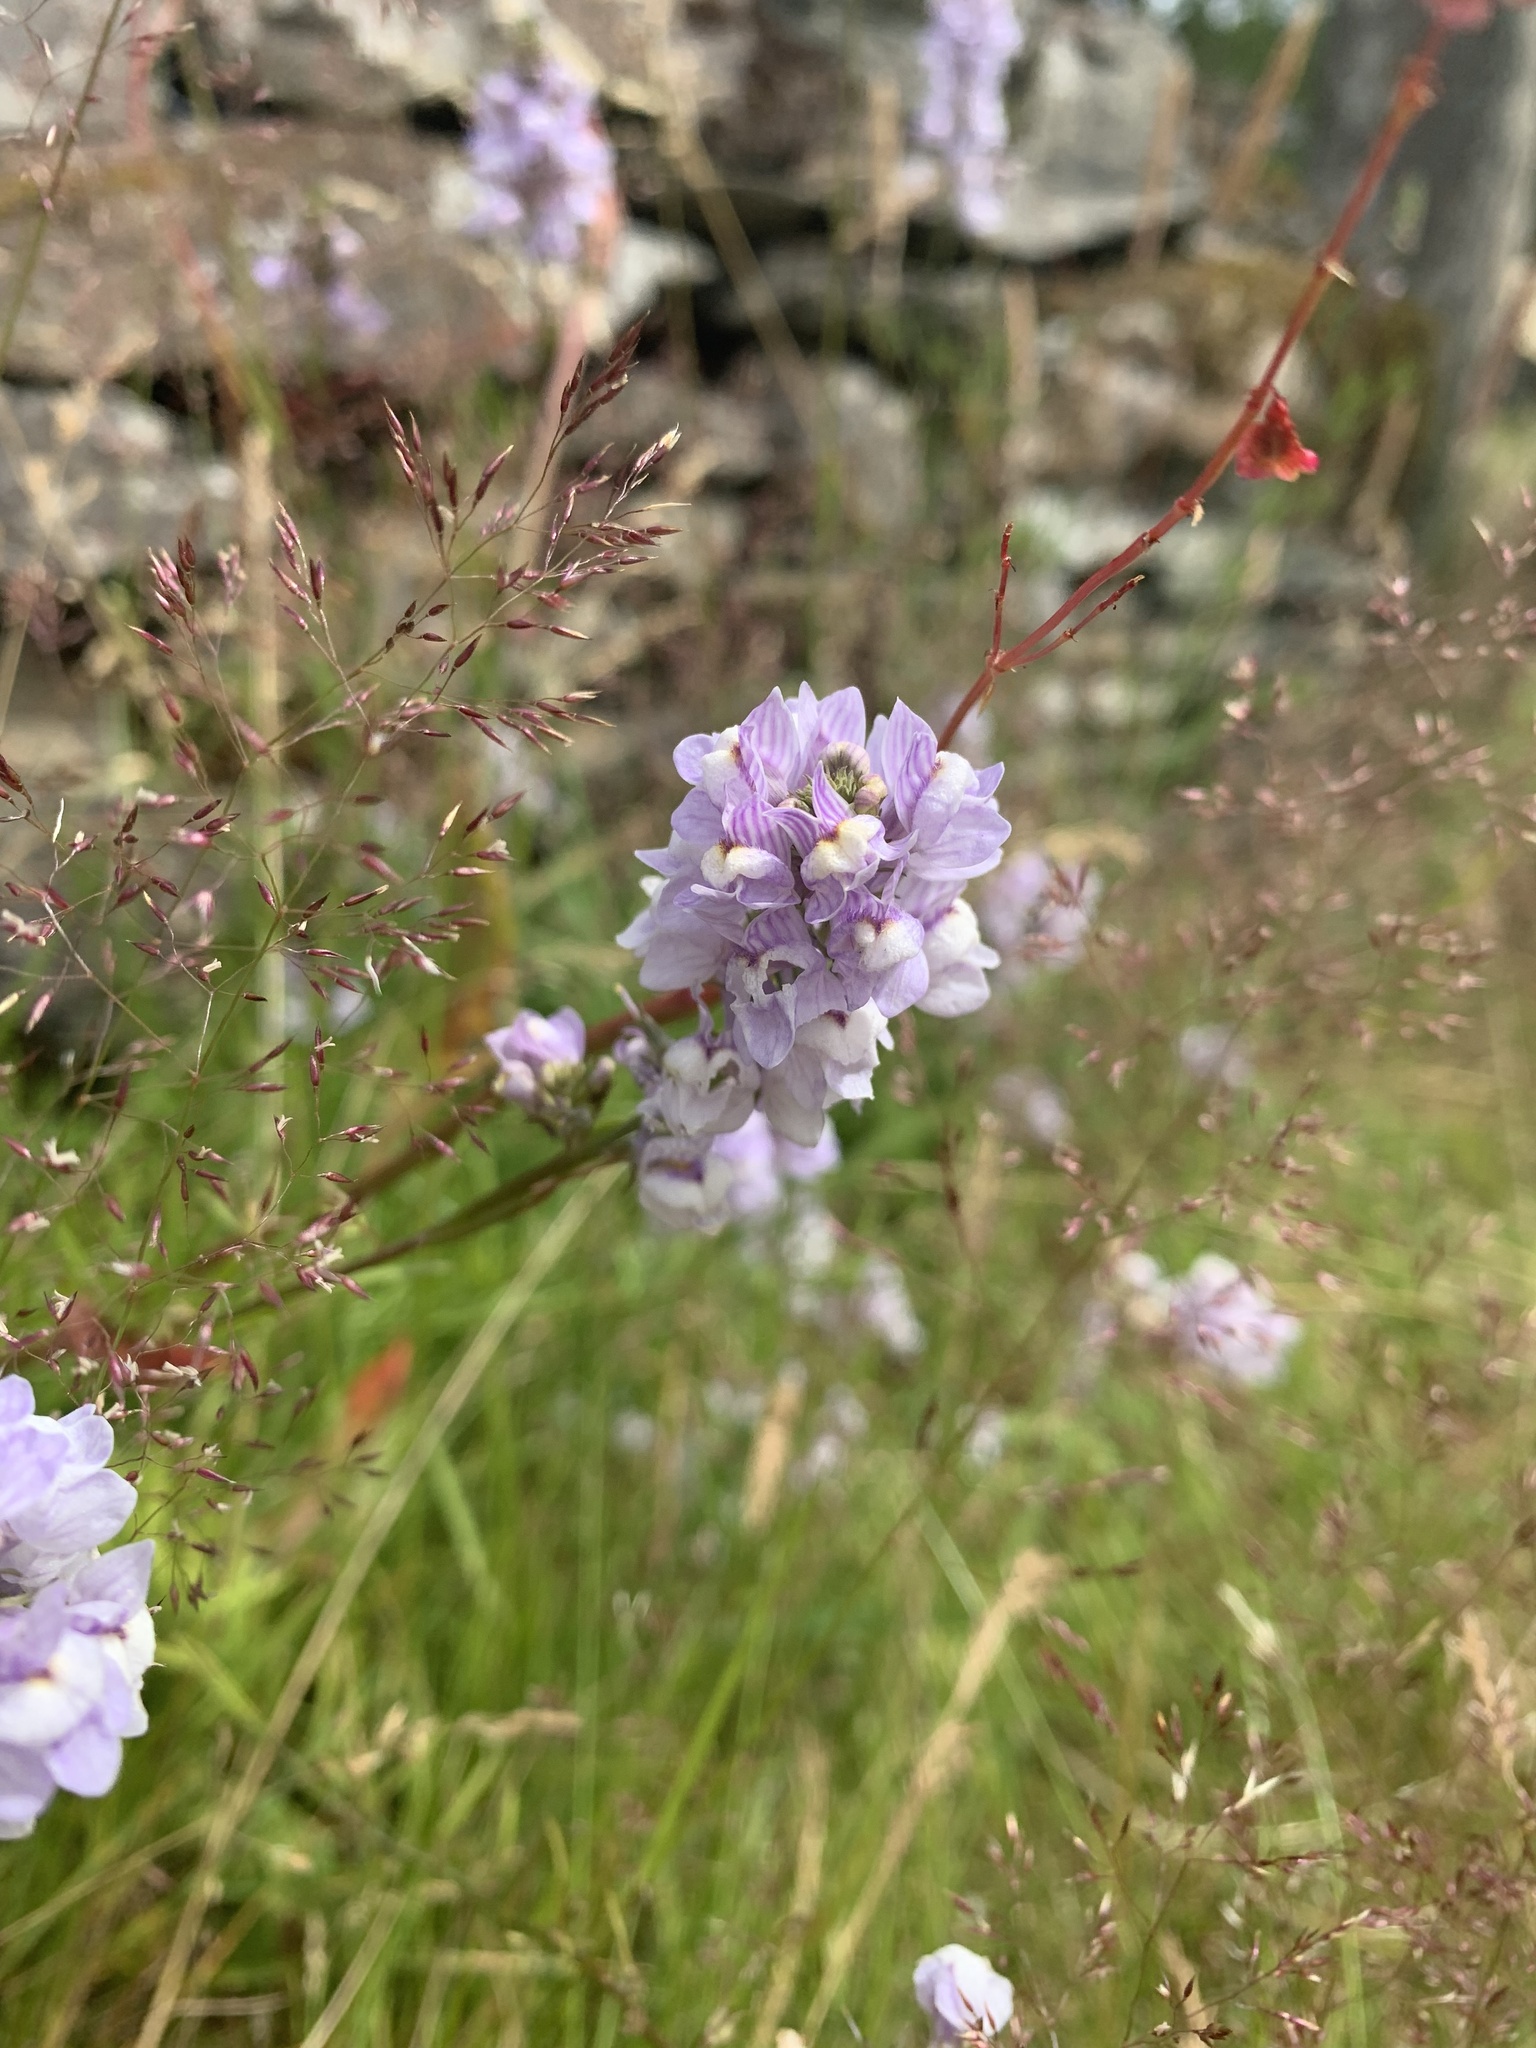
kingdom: Plantae
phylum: Tracheophyta
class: Magnoliopsida
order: Lamiales
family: Plantaginaceae
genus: Linaria
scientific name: Linaria repens
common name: Pale toadflax
